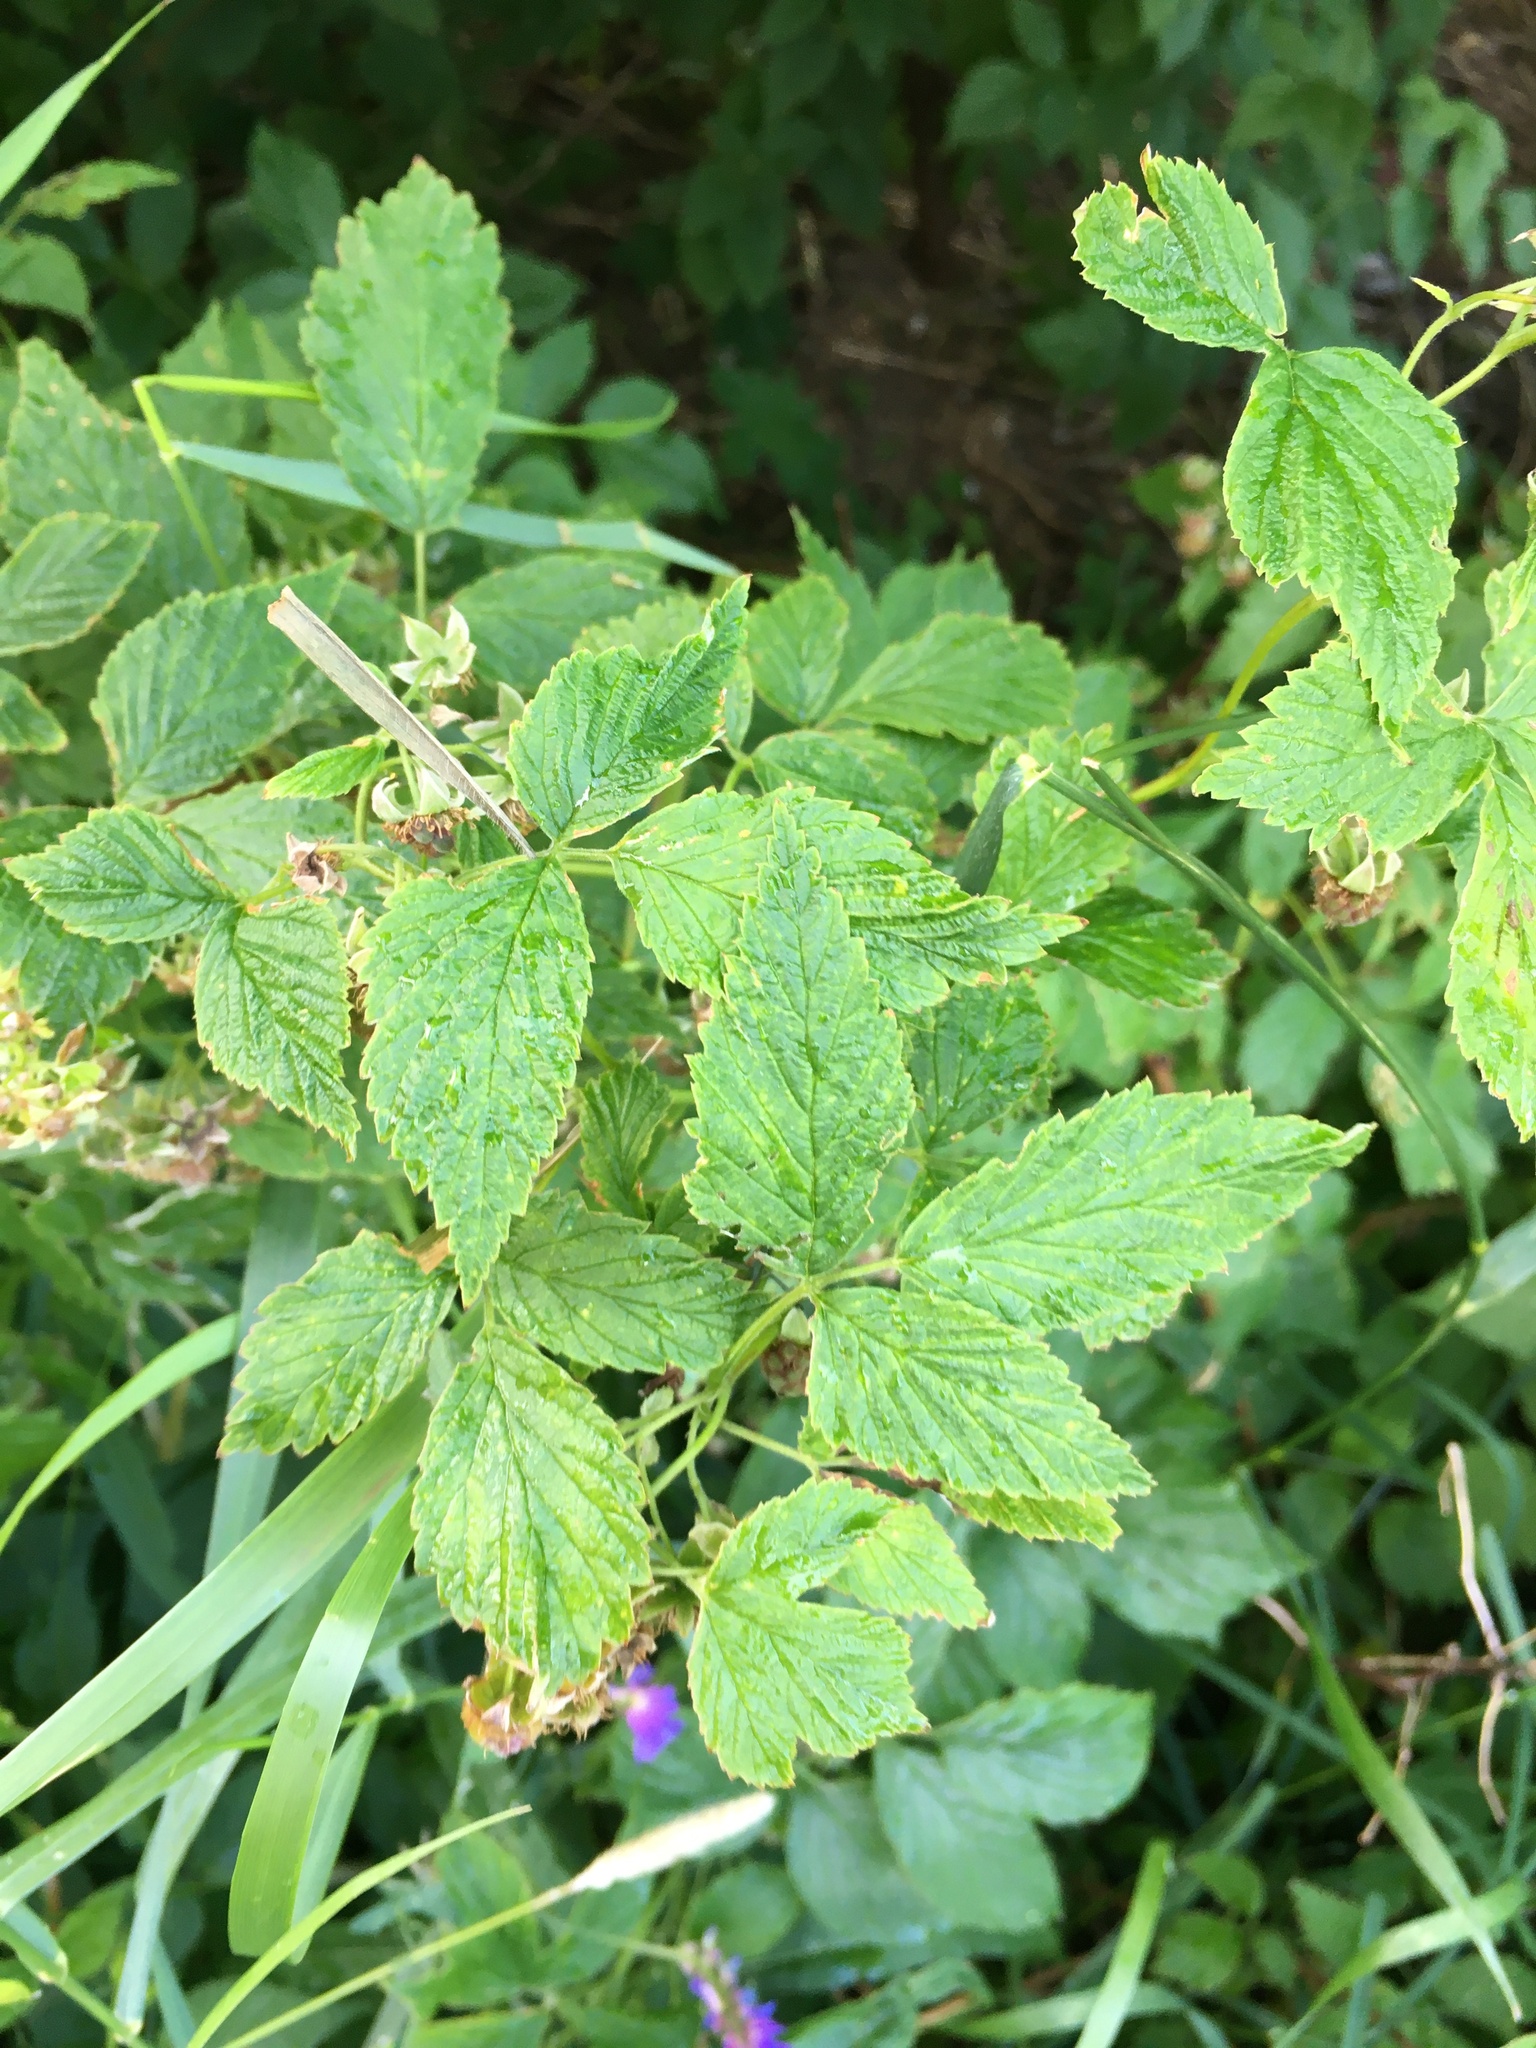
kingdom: Plantae
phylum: Tracheophyta
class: Magnoliopsida
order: Rosales
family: Rosaceae
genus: Rubus
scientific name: Rubus idaeus
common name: Raspberry
